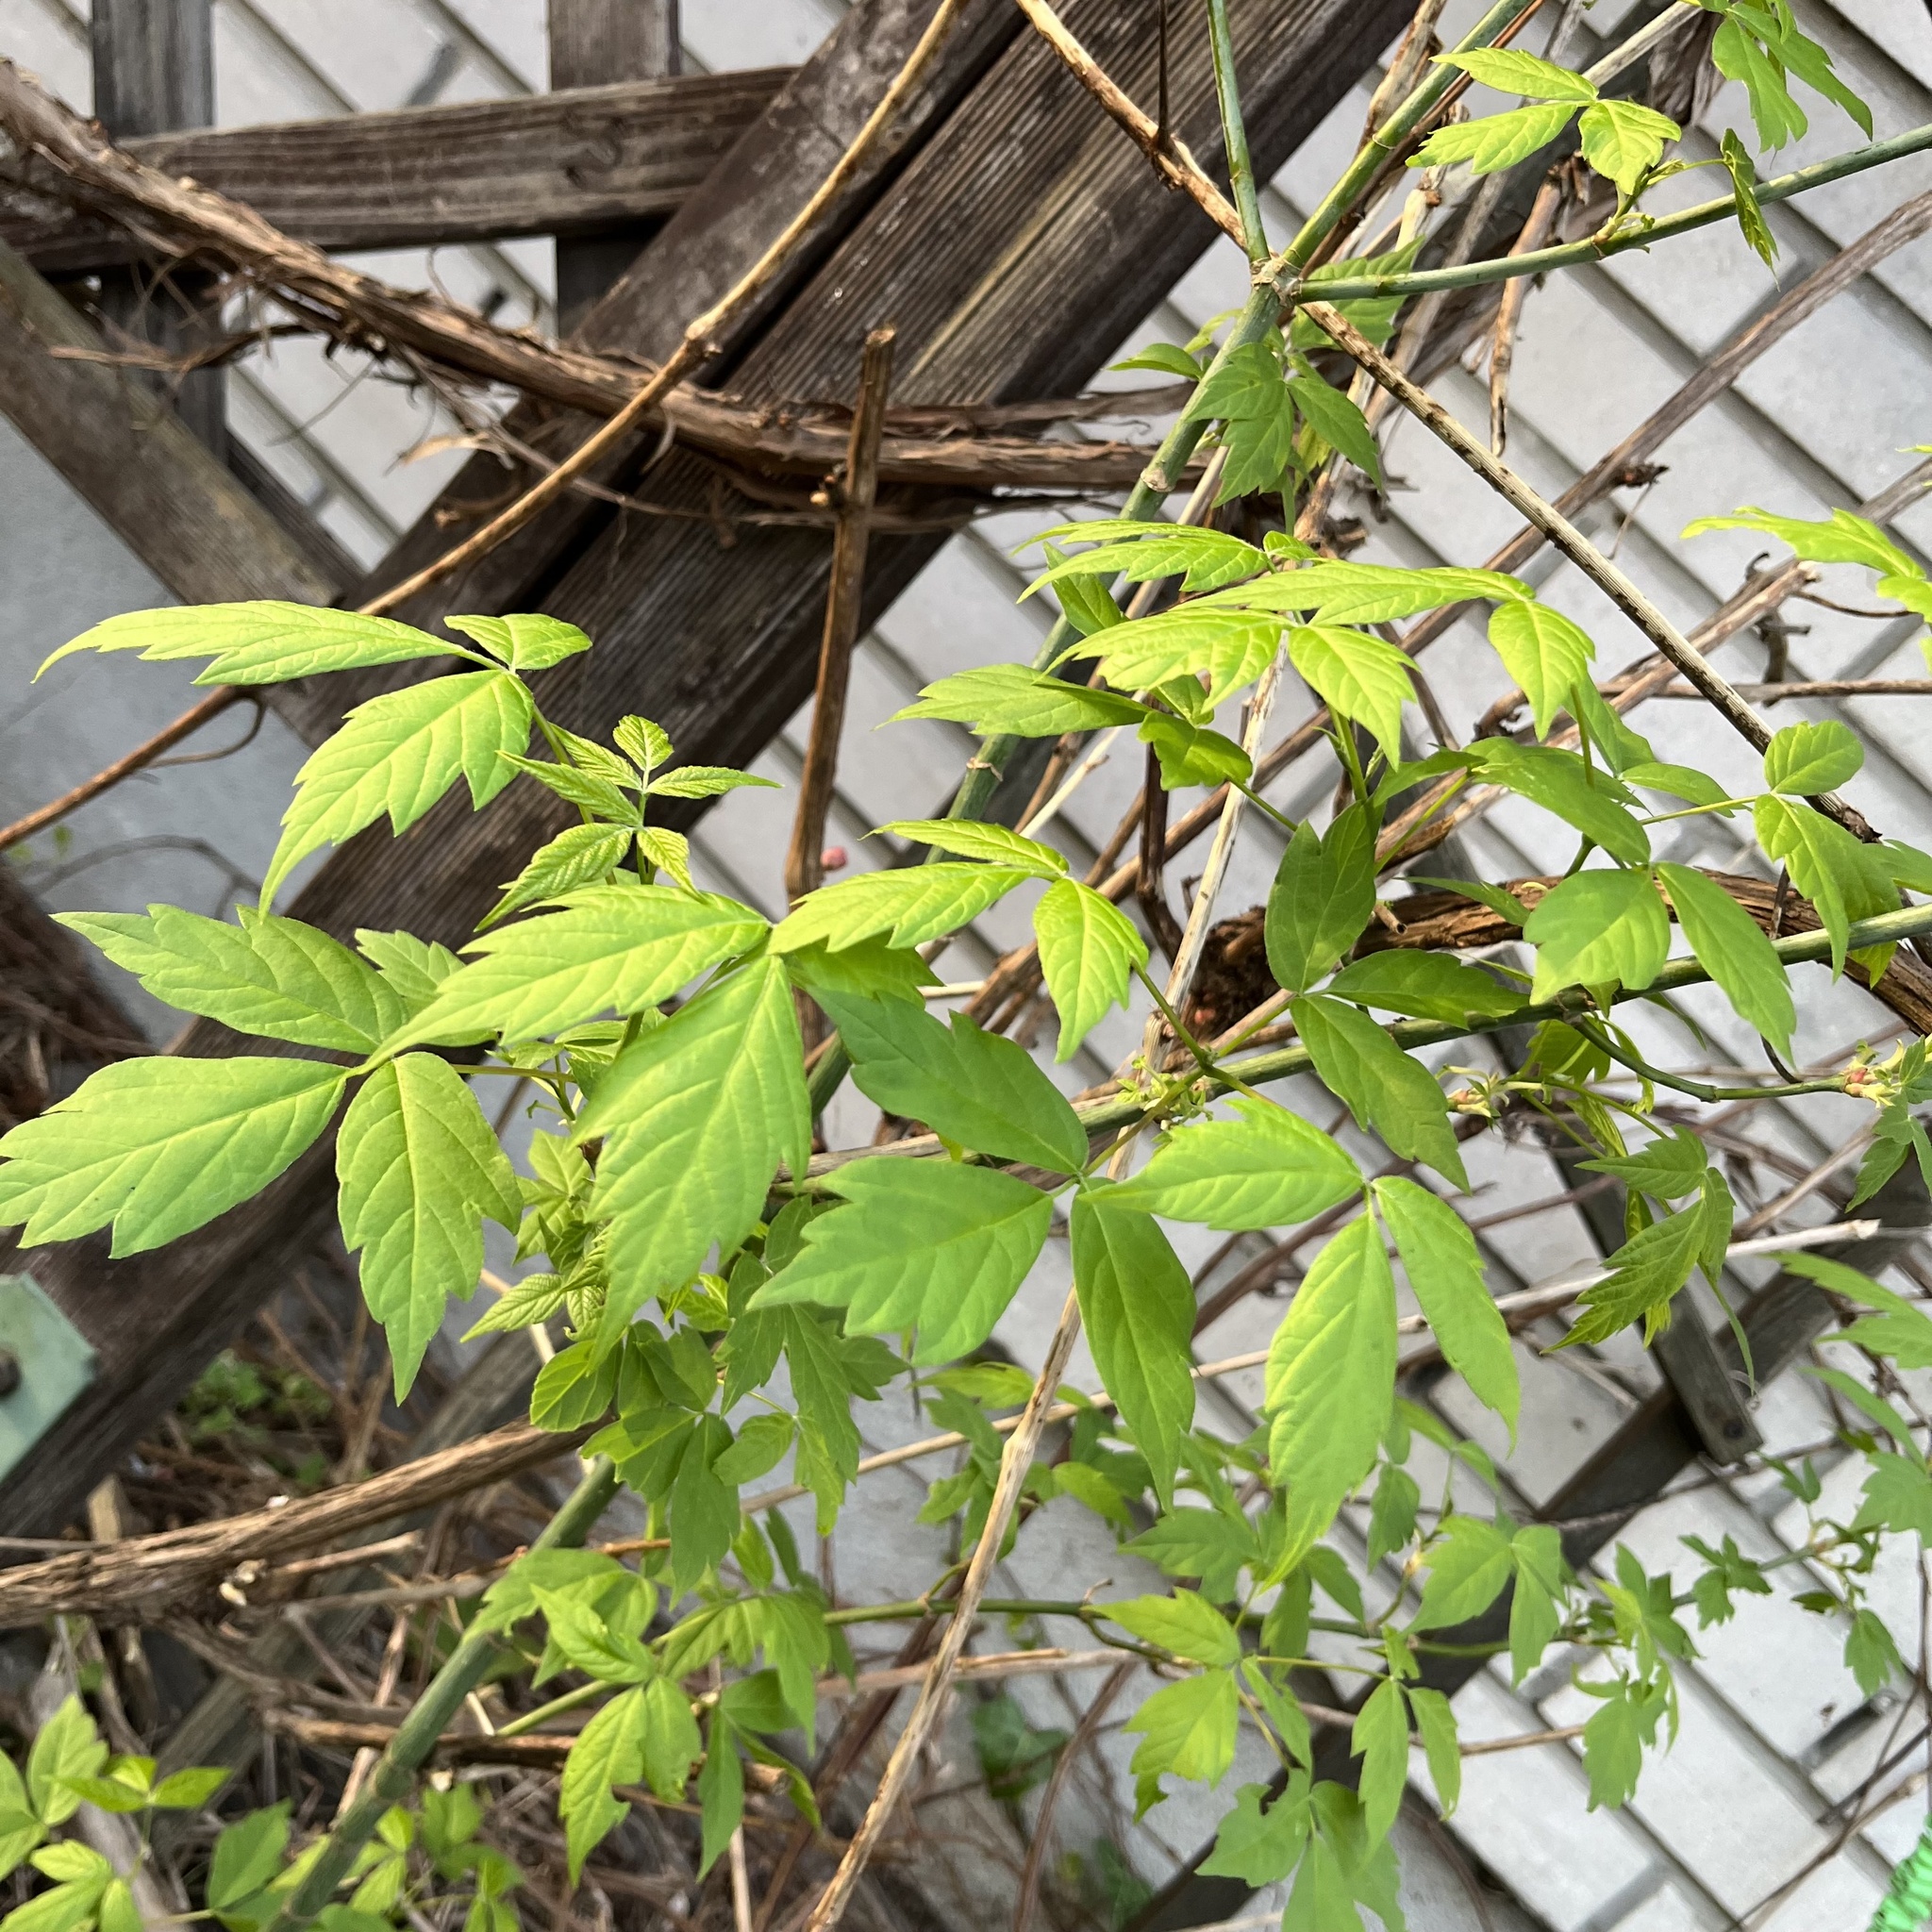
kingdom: Plantae
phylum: Tracheophyta
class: Magnoliopsida
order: Sapindales
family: Sapindaceae
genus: Acer
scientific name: Acer negundo
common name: Ashleaf maple
